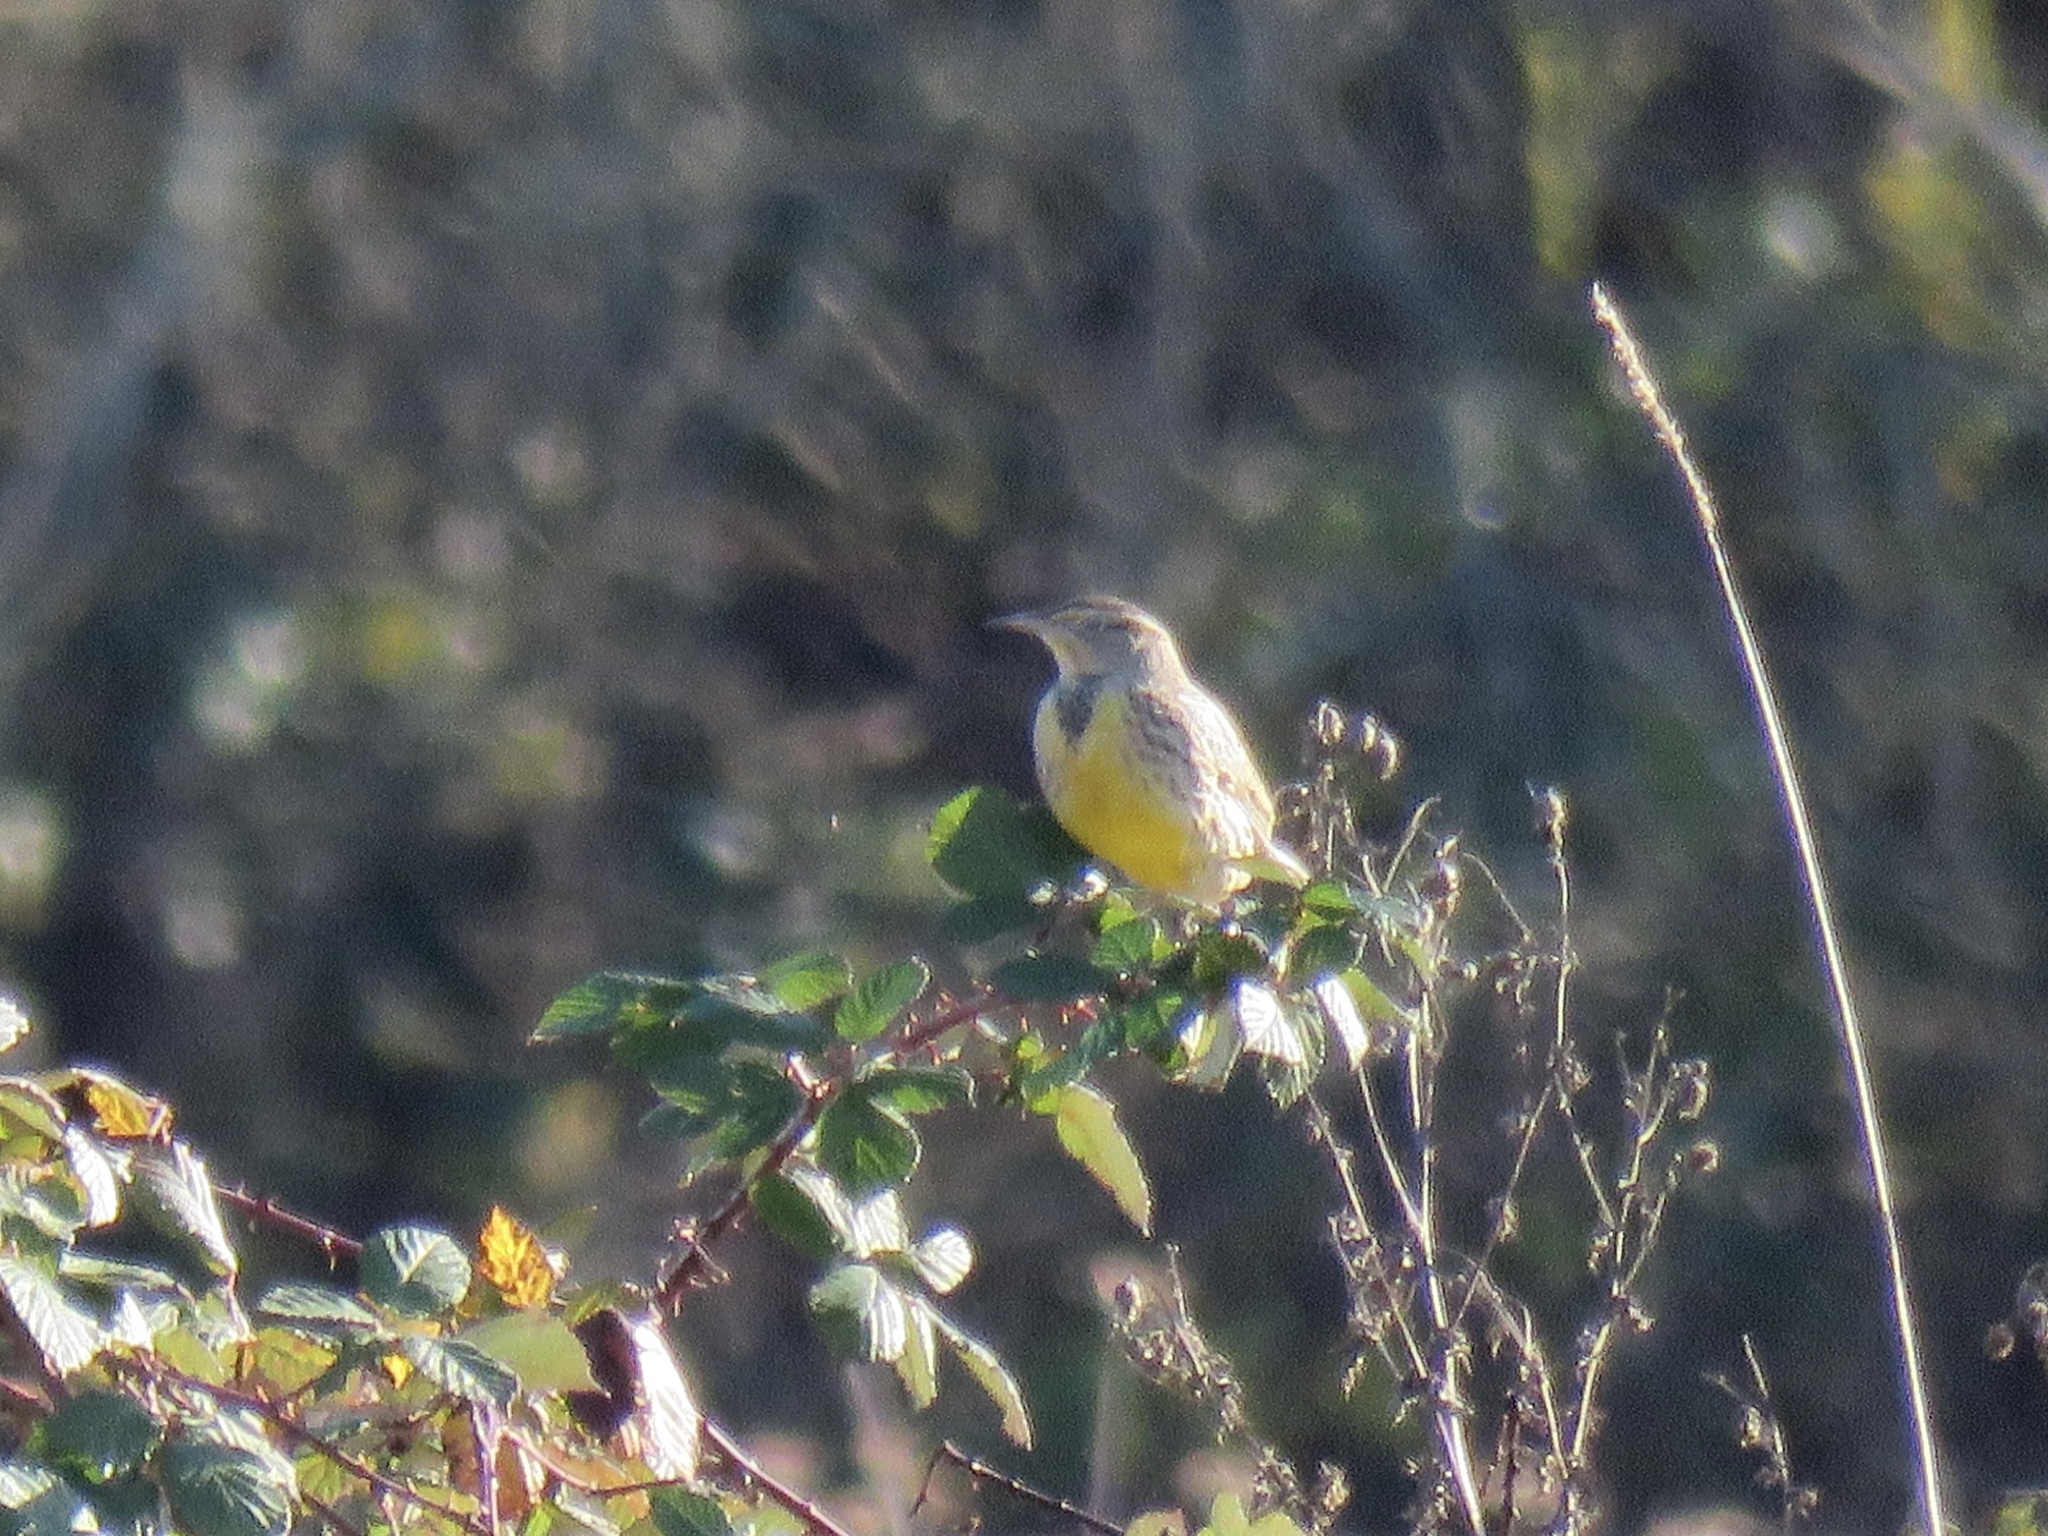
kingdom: Animalia
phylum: Chordata
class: Aves
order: Passeriformes
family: Icteridae
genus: Sturnella
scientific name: Sturnella neglecta
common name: Western meadowlark
